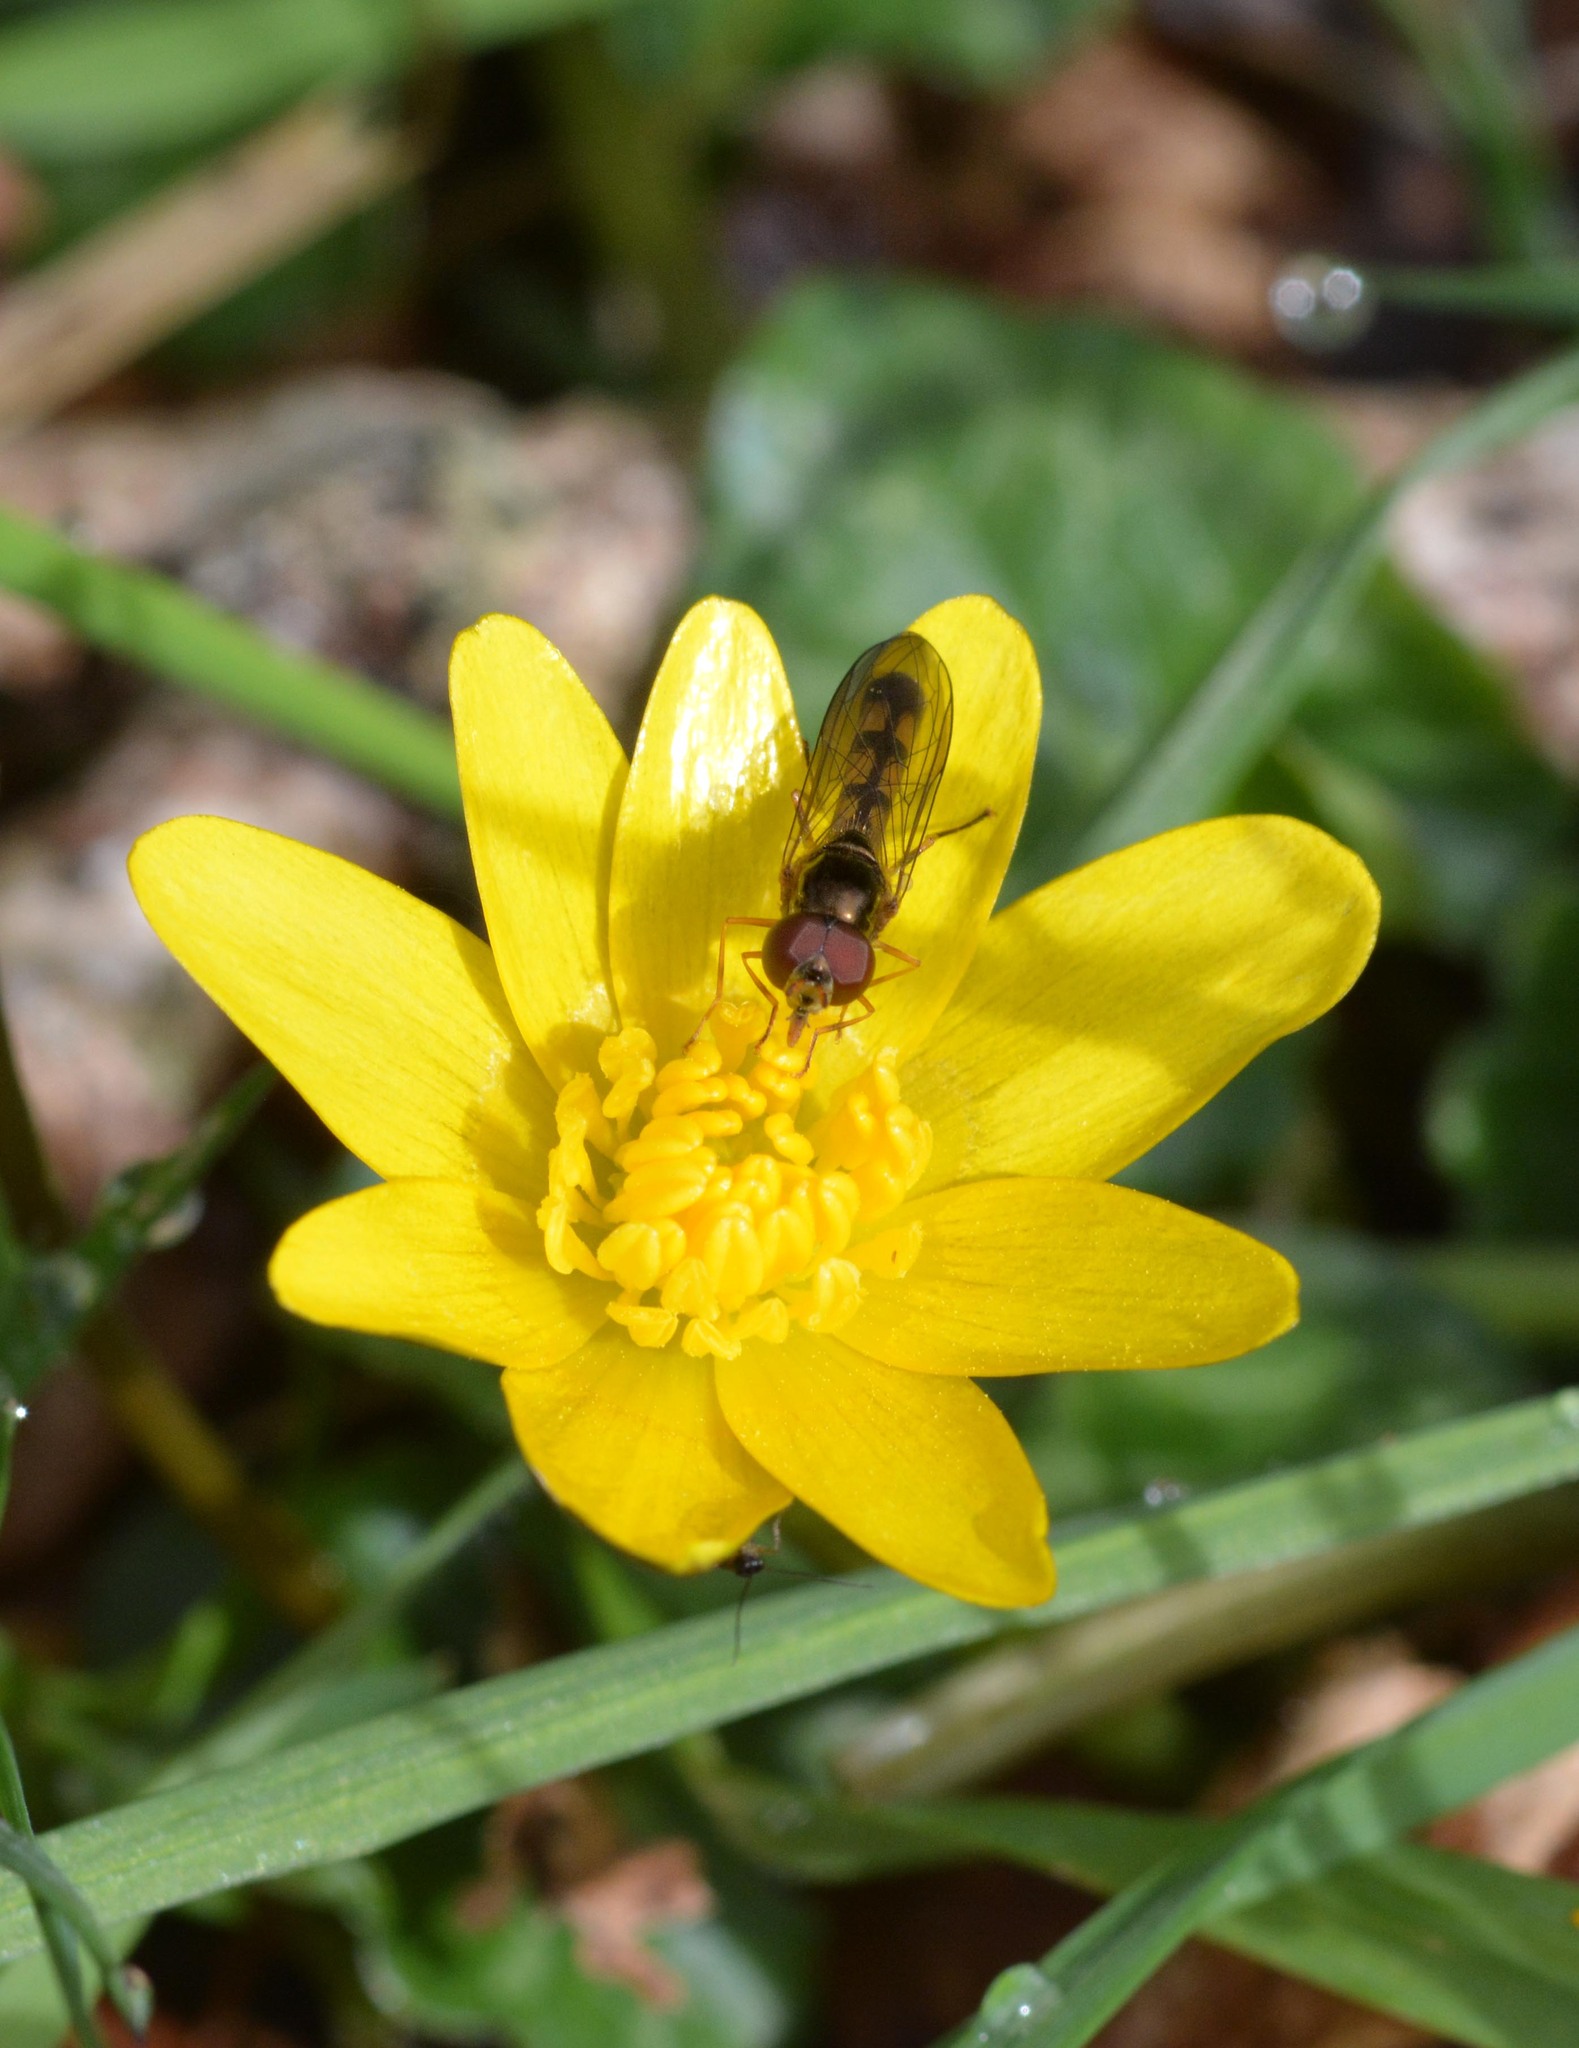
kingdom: Animalia
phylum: Arthropoda
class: Insecta
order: Diptera
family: Syrphidae
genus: Melanostoma
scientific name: Melanostoma scalare
